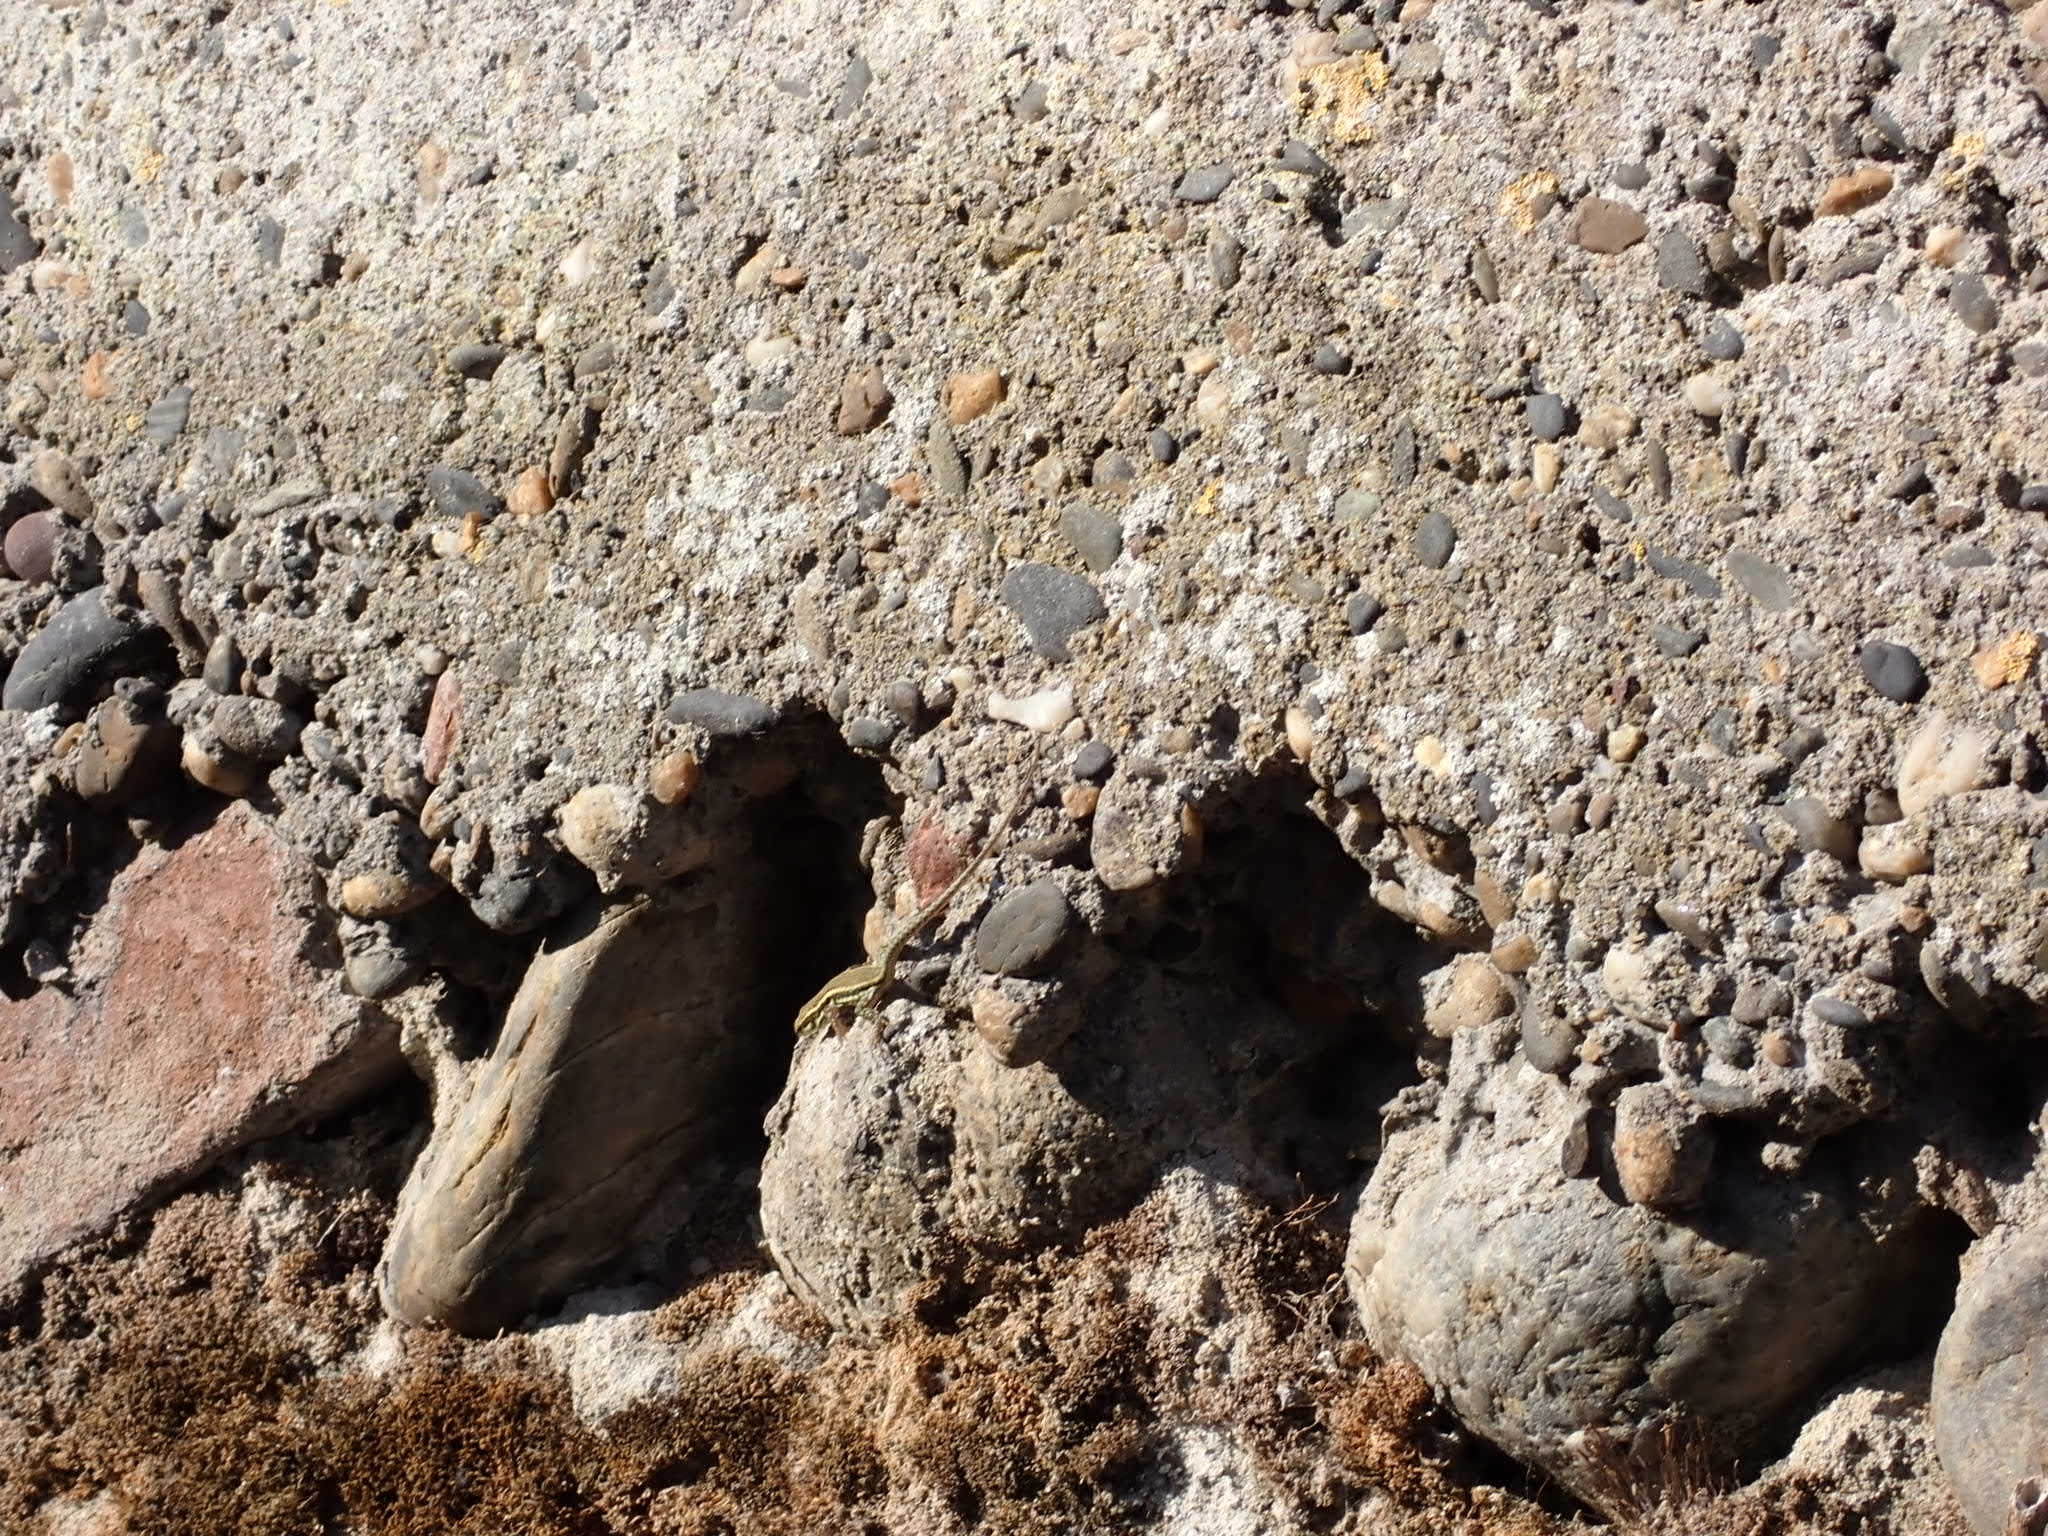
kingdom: Animalia
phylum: Chordata
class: Squamata
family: Lacertidae
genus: Podarcis
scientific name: Podarcis muralis
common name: Common wall lizard
